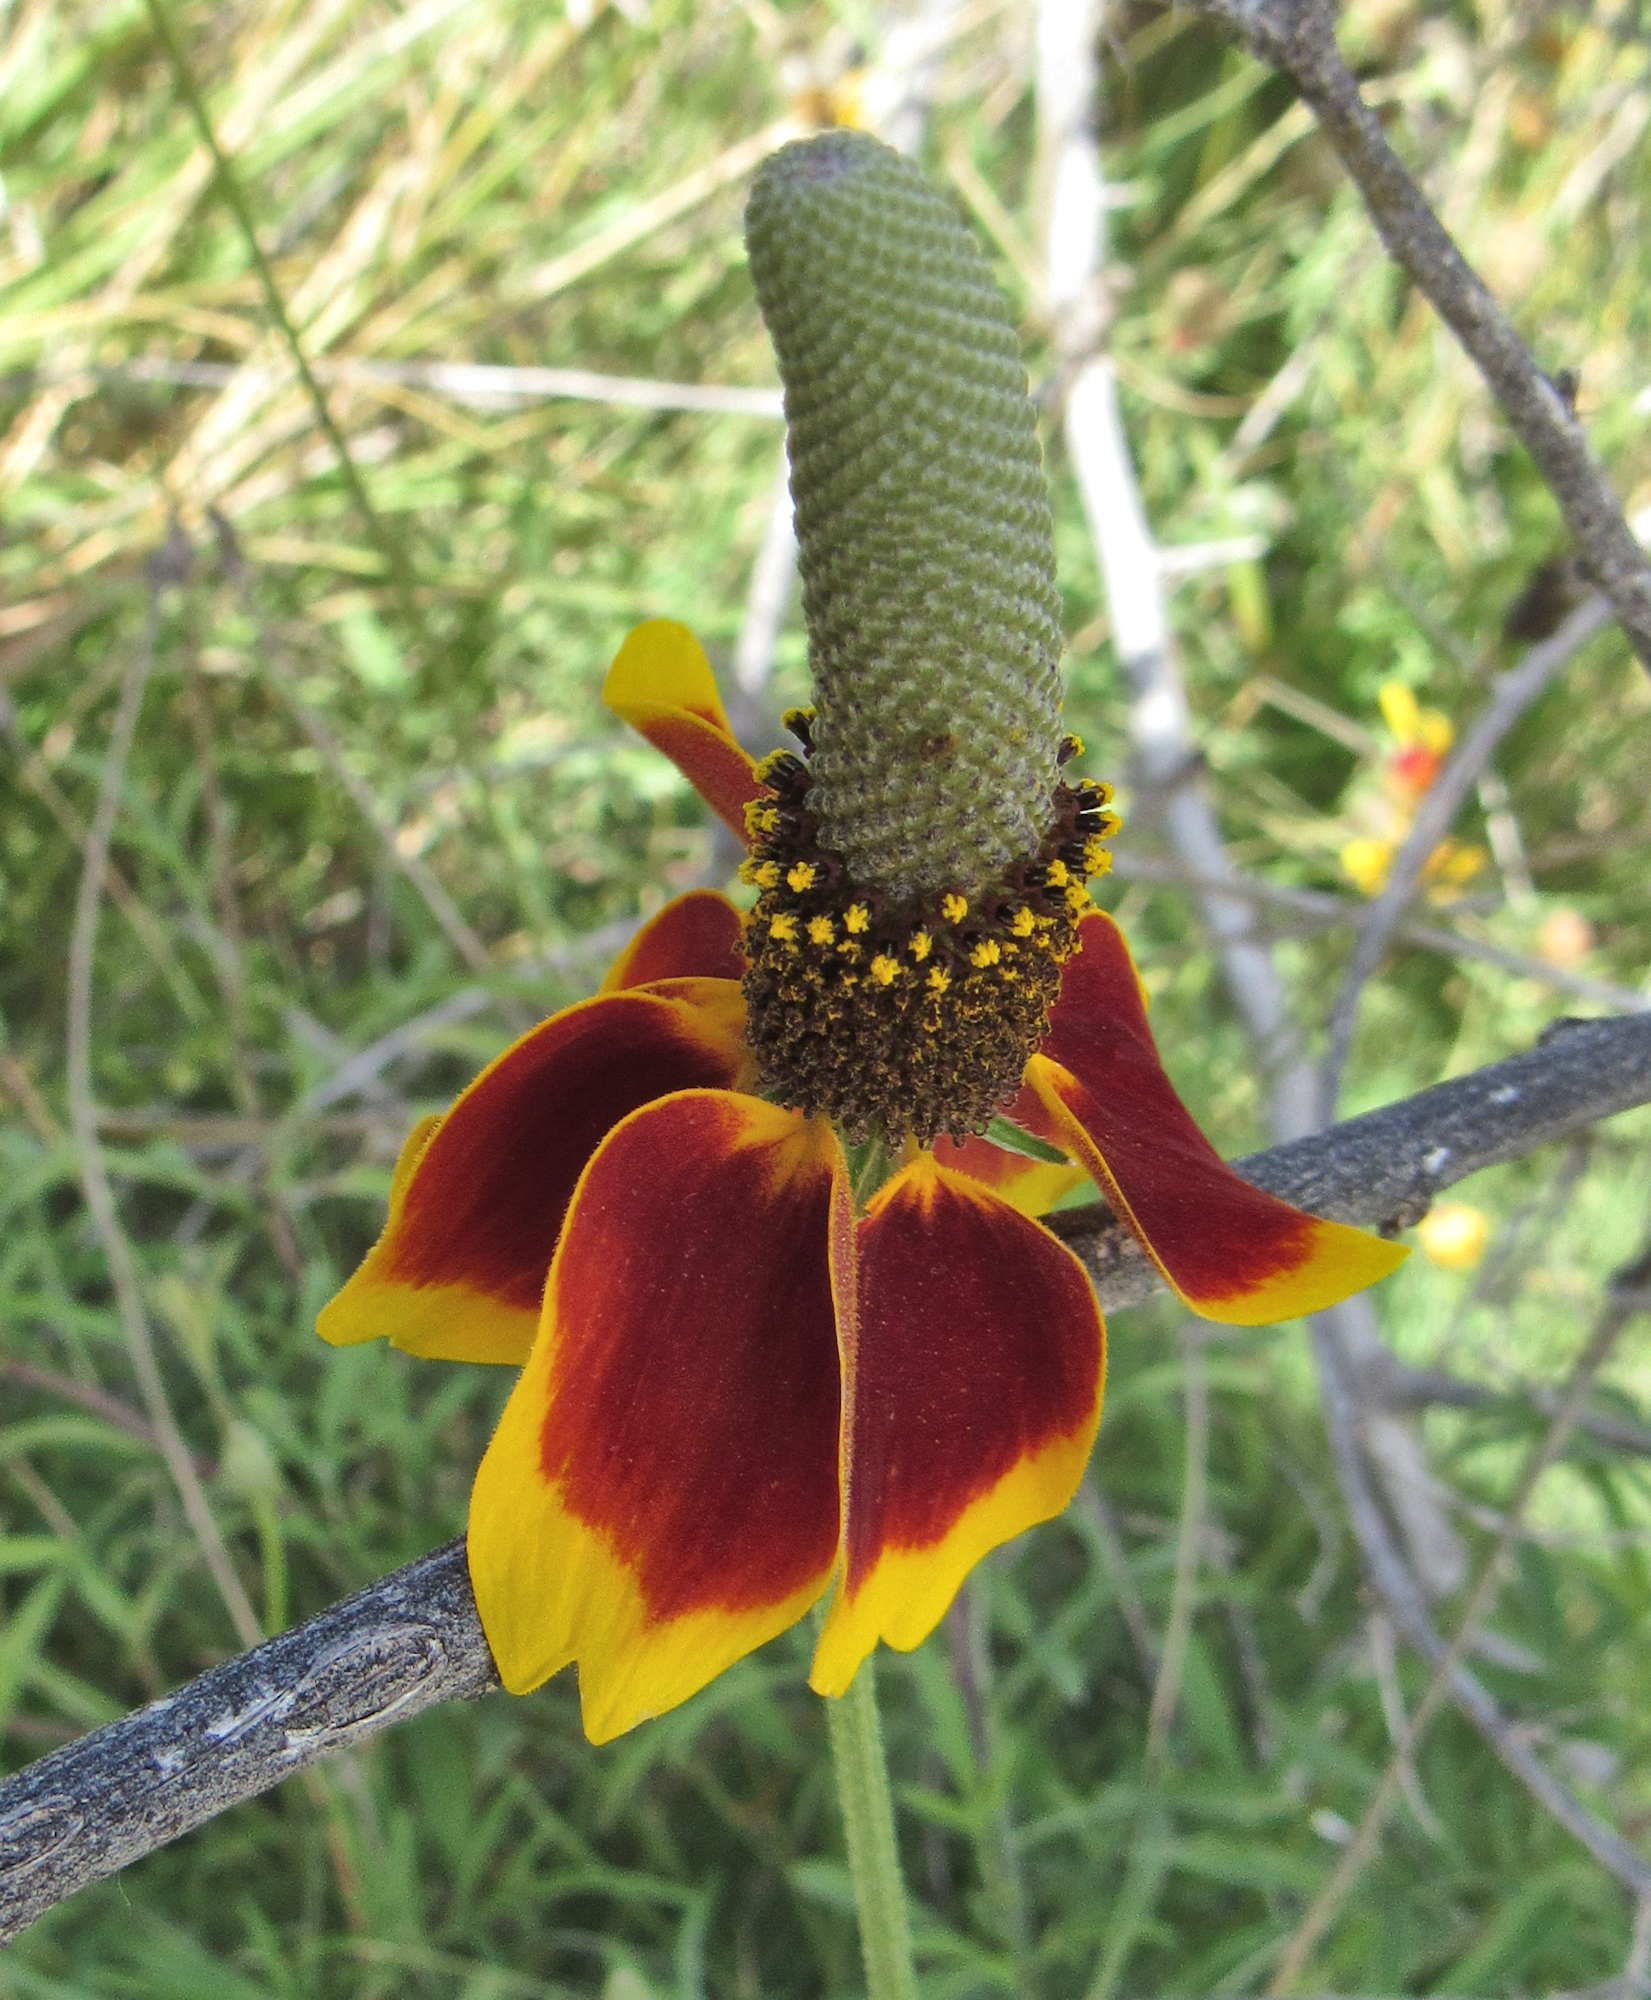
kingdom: Plantae
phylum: Tracheophyta
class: Magnoliopsida
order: Asterales
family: Asteraceae
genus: Ratibida
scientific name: Ratibida columnifera
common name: Prairie coneflower
